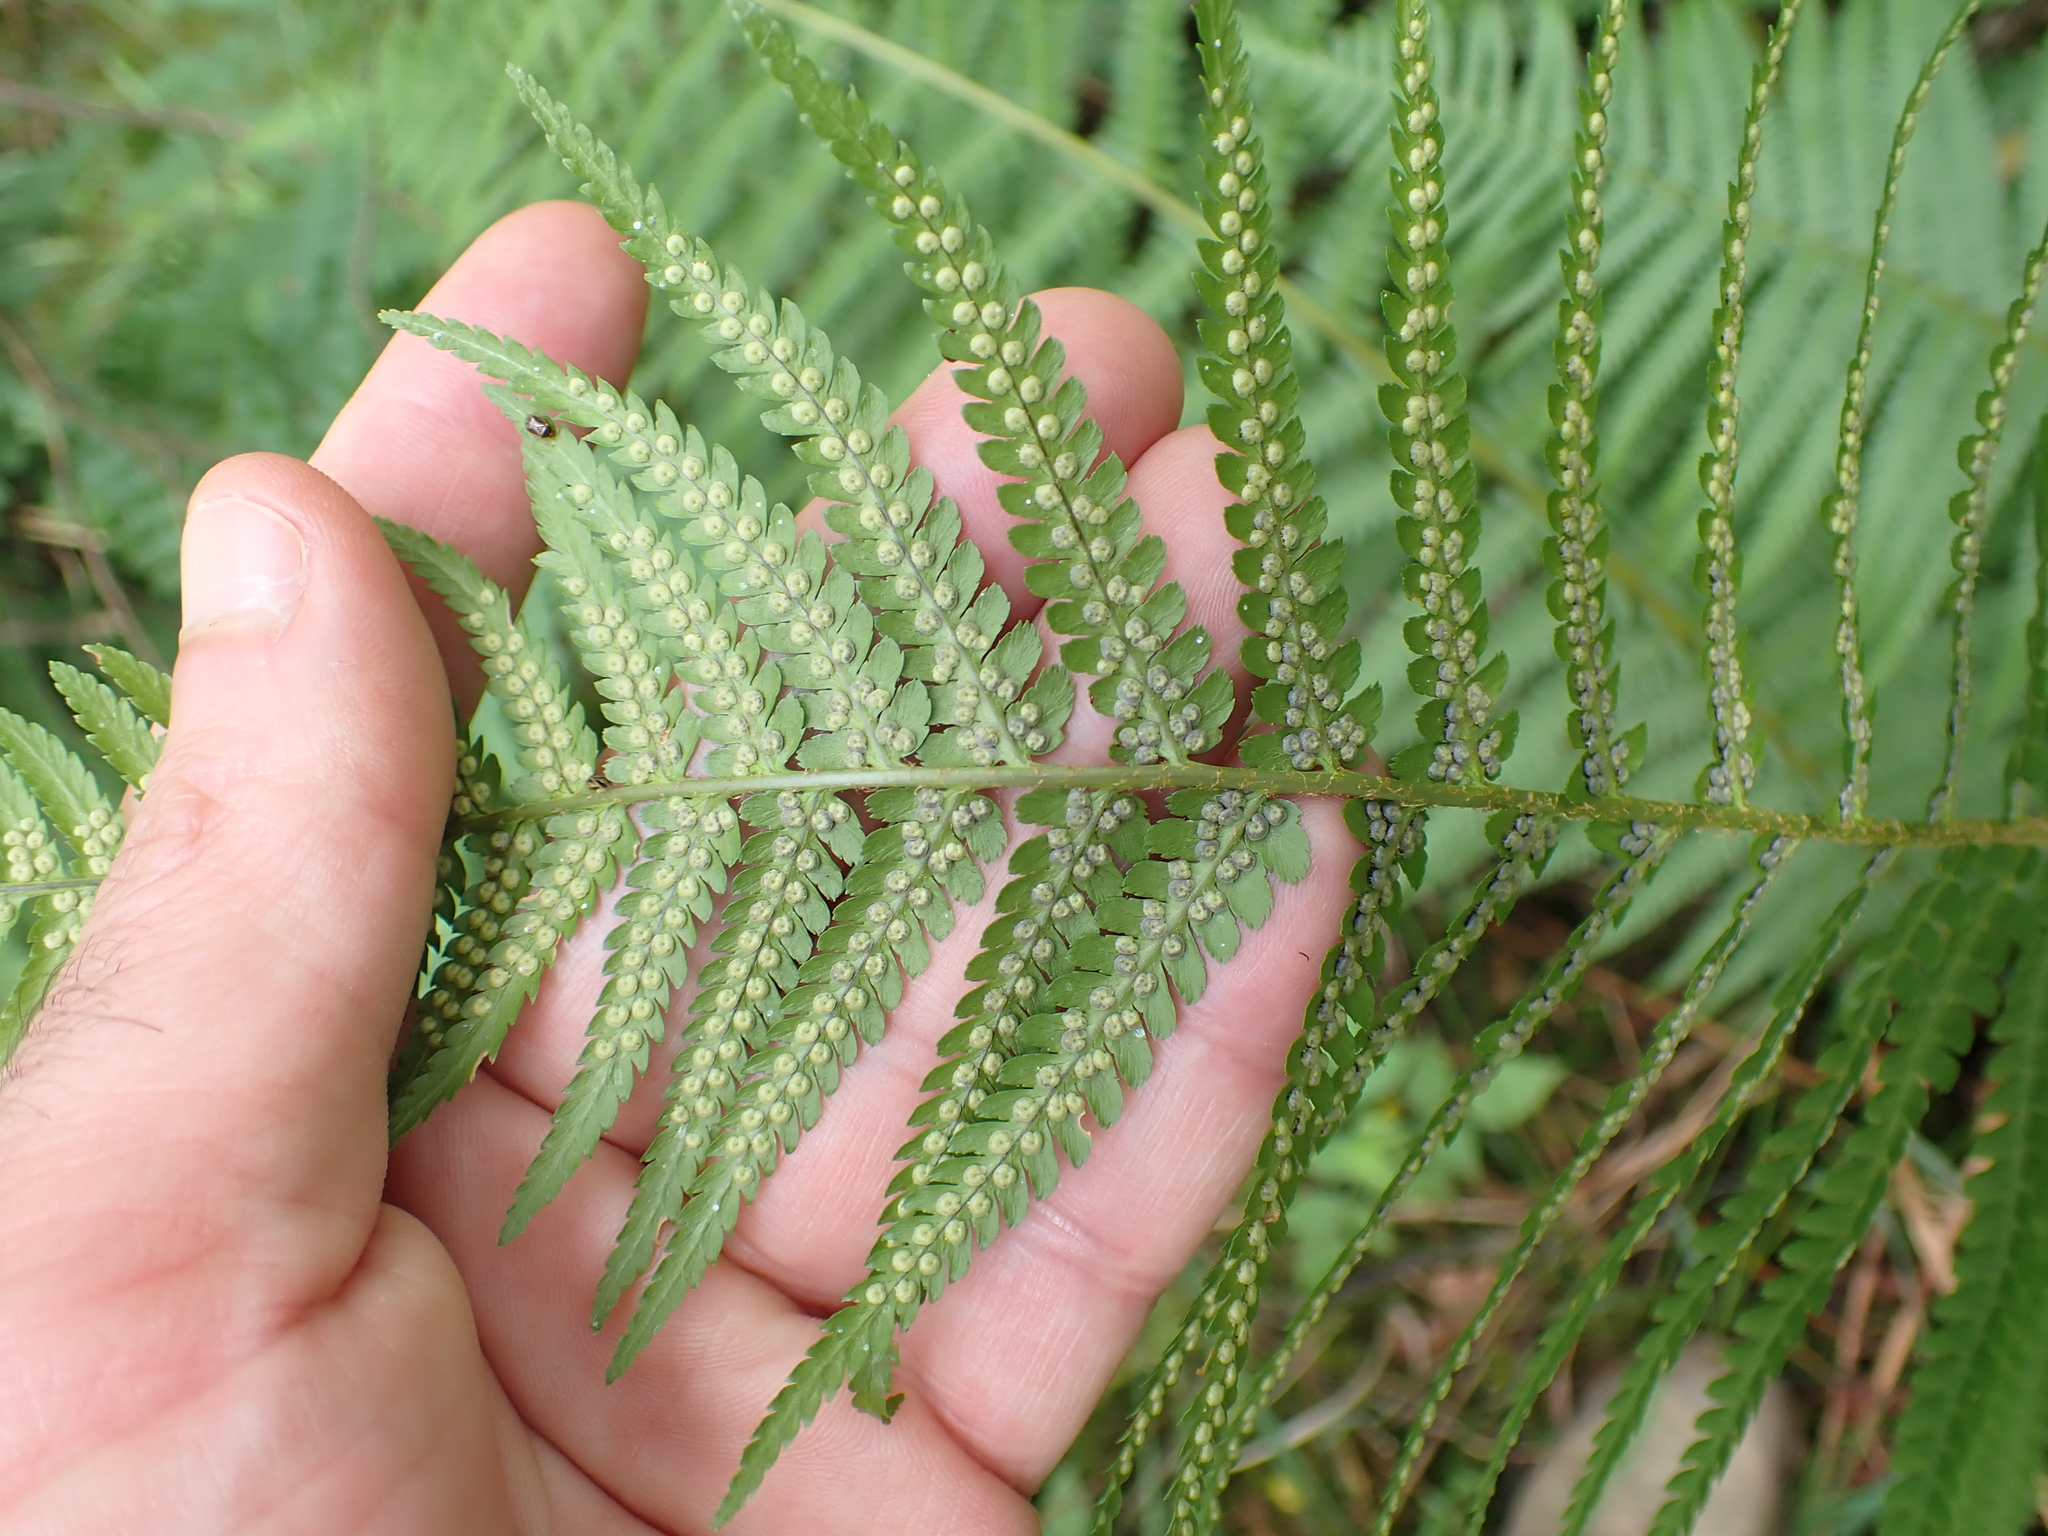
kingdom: Plantae
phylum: Tracheophyta
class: Polypodiopsida
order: Polypodiales
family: Dryopteridaceae
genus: Dryopteris
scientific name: Dryopteris filix-mas
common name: Male fern
